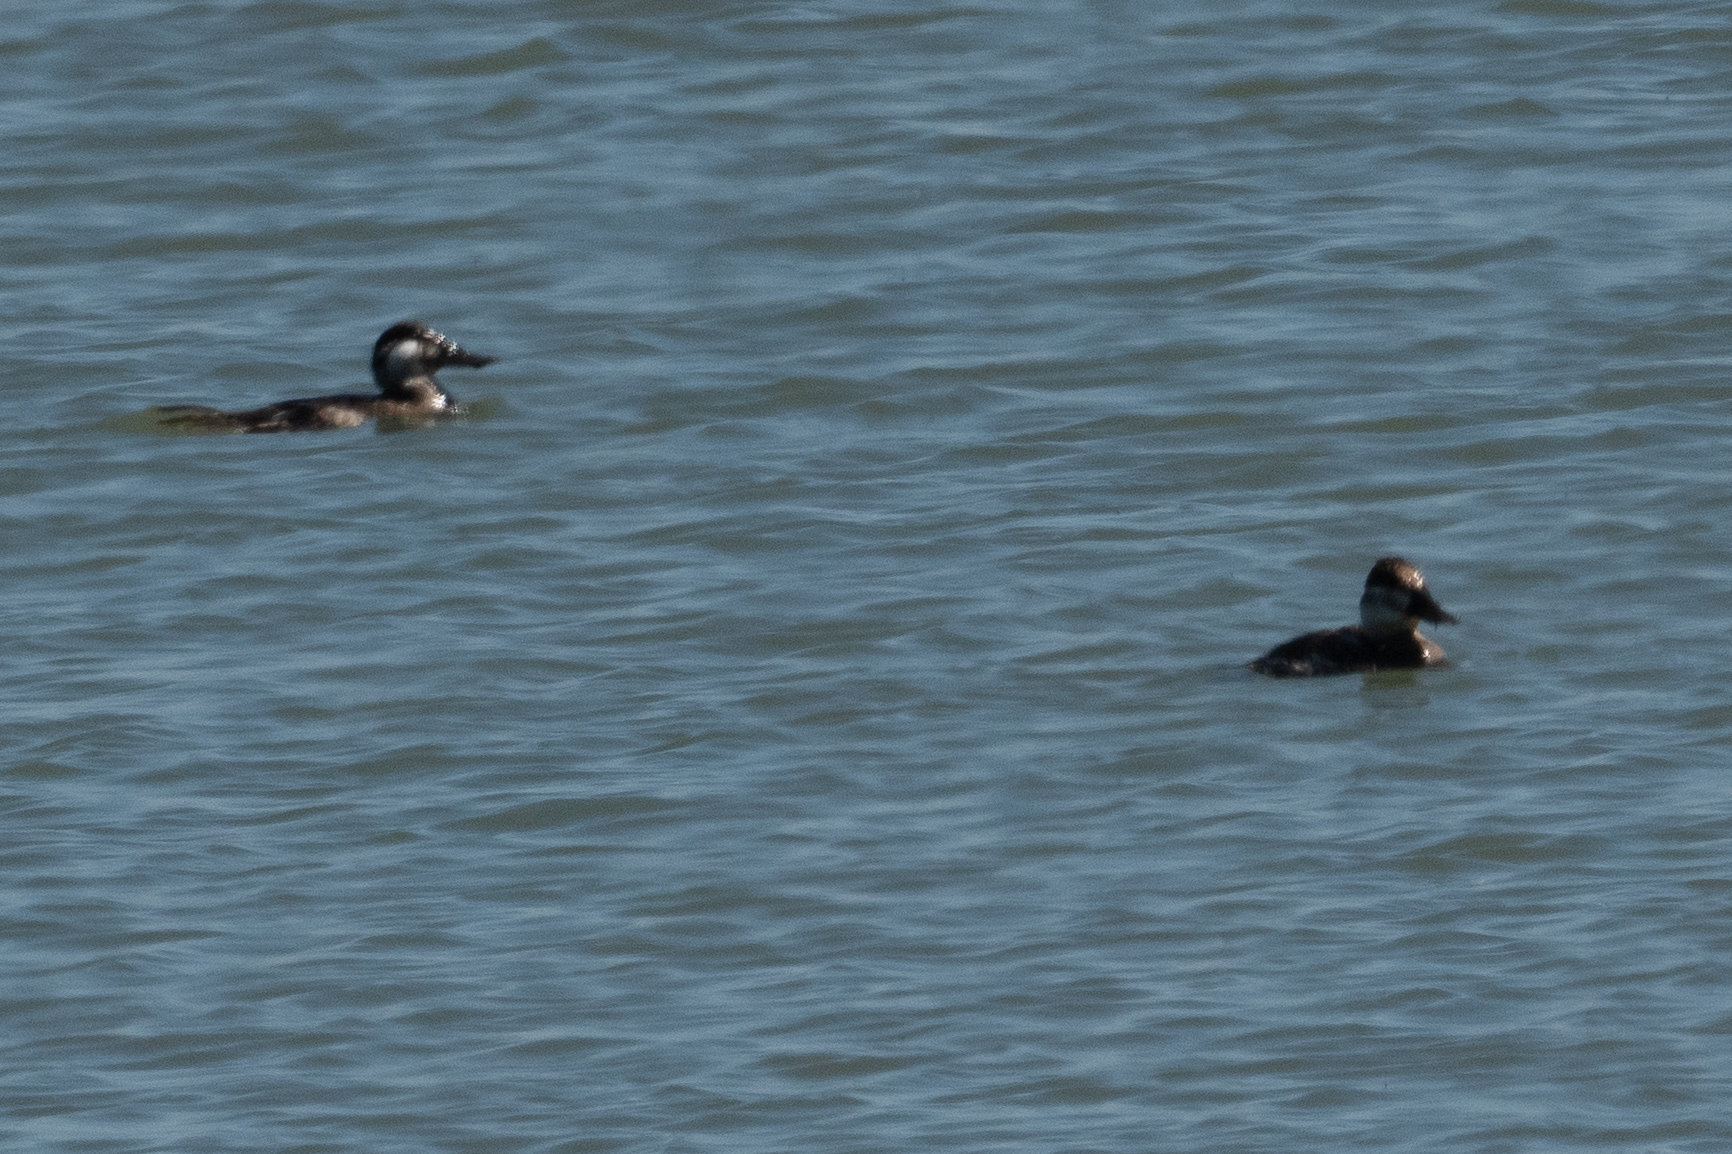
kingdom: Animalia
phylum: Chordata
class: Aves
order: Anseriformes
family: Anatidae
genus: Oxyura
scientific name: Oxyura jamaicensis
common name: Ruddy duck
